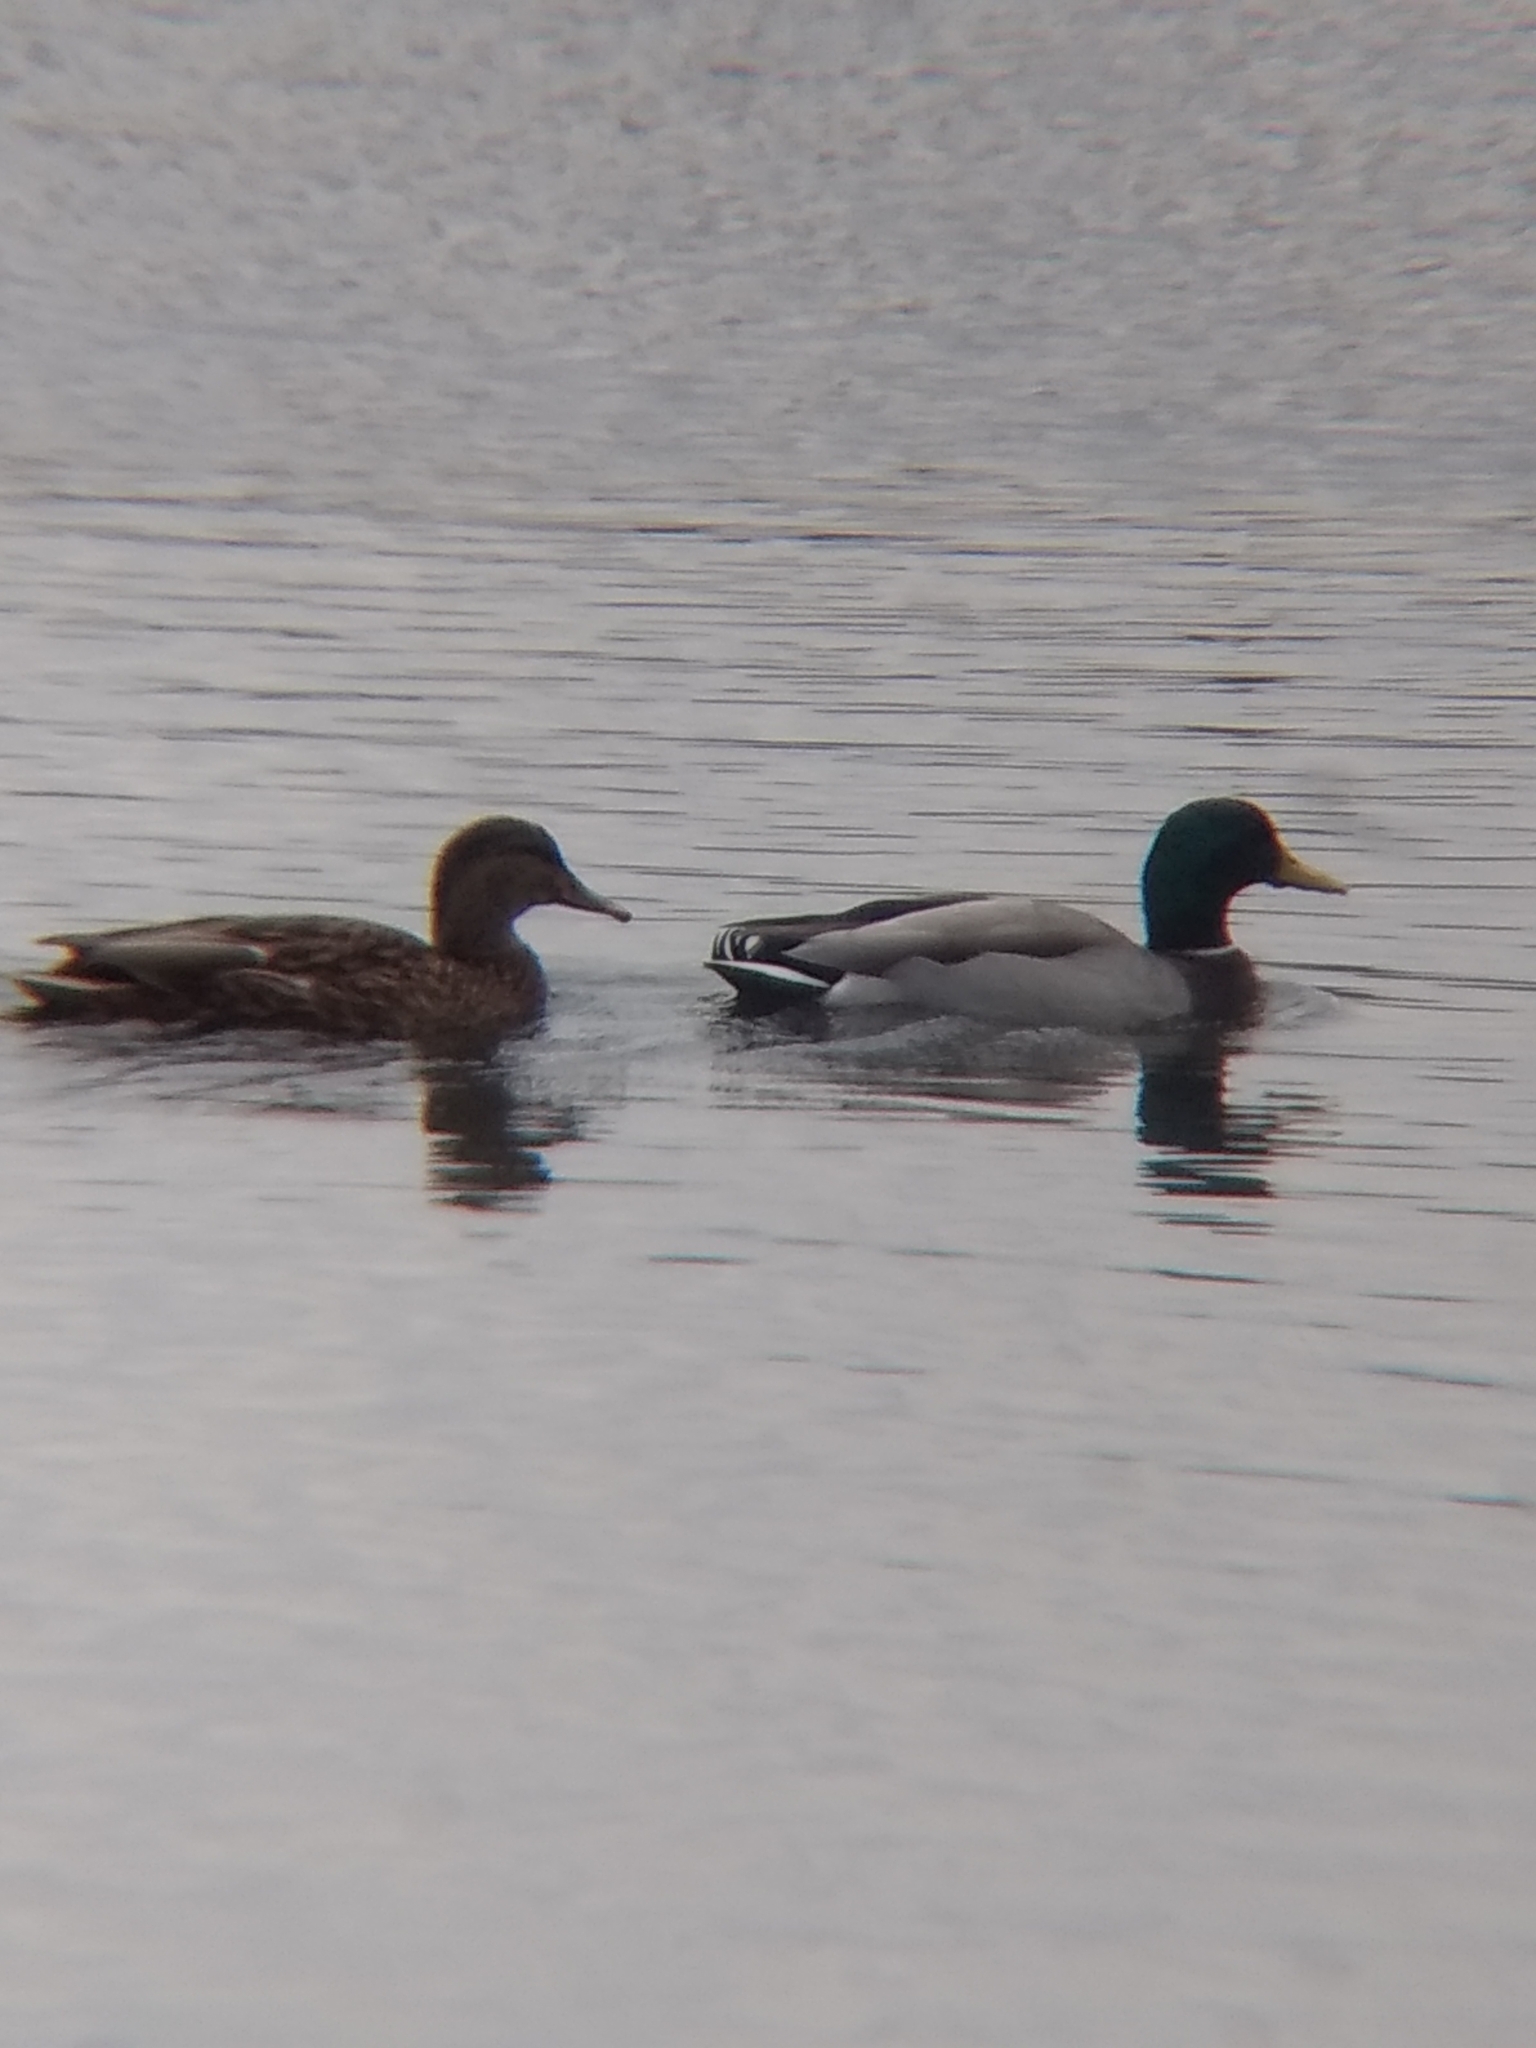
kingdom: Animalia
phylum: Chordata
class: Aves
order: Anseriformes
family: Anatidae
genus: Anas
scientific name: Anas platyrhynchos
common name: Mallard
